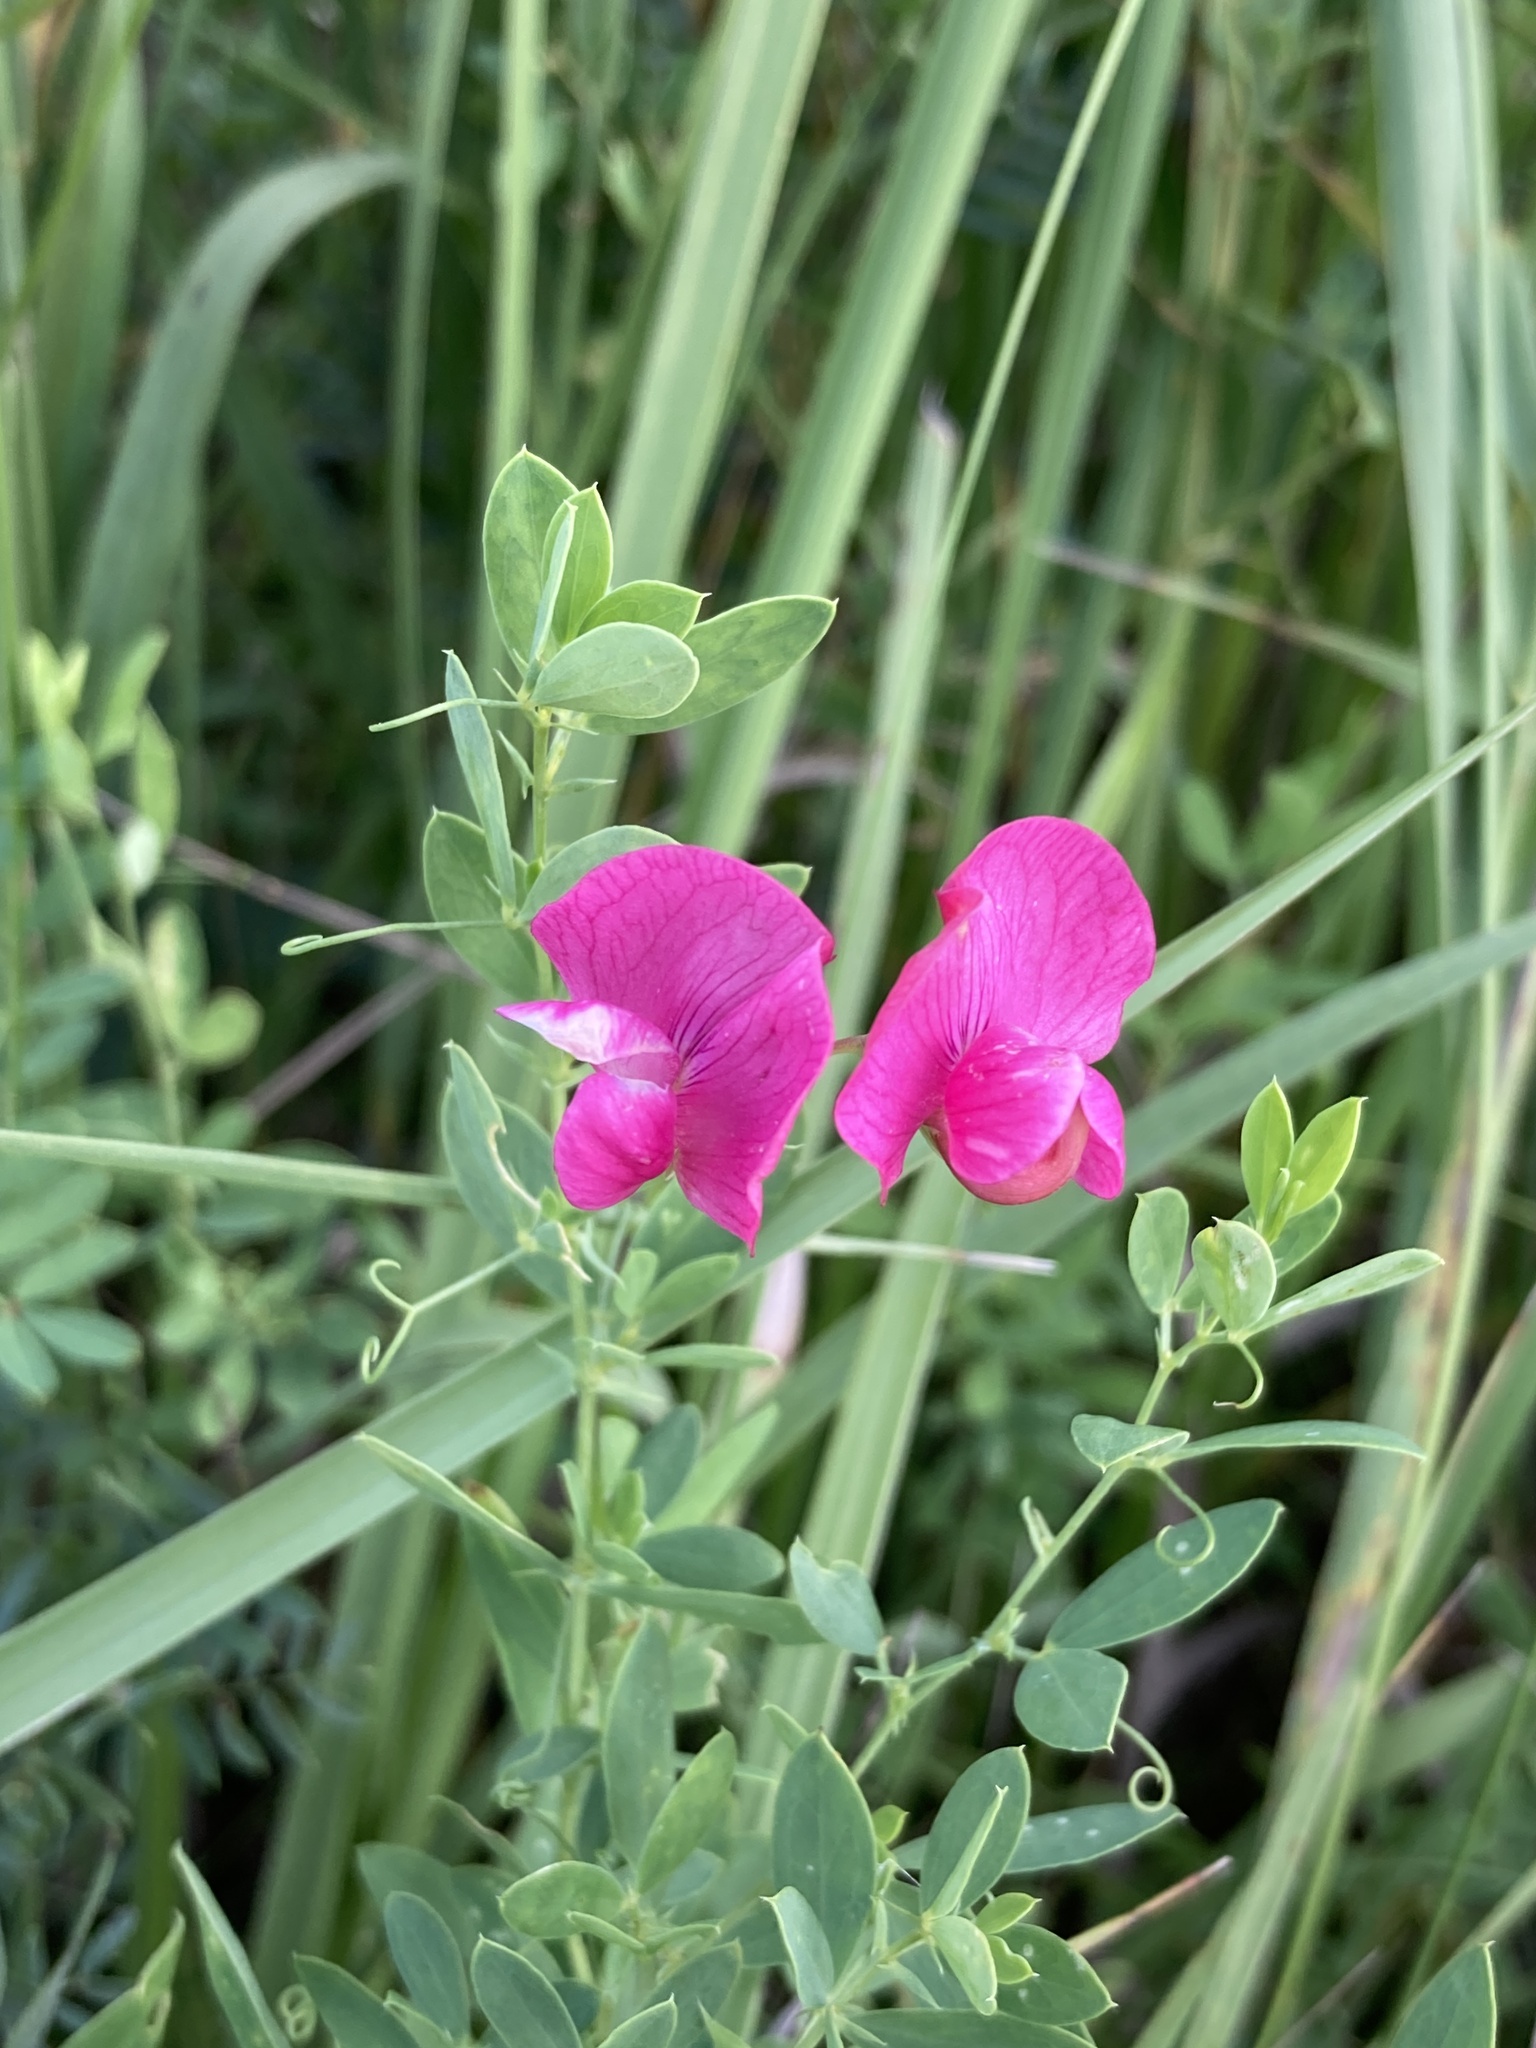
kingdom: Plantae
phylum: Tracheophyta
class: Magnoliopsida
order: Fabales
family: Fabaceae
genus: Lathyrus
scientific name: Lathyrus tuberosus
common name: Tuberous pea
